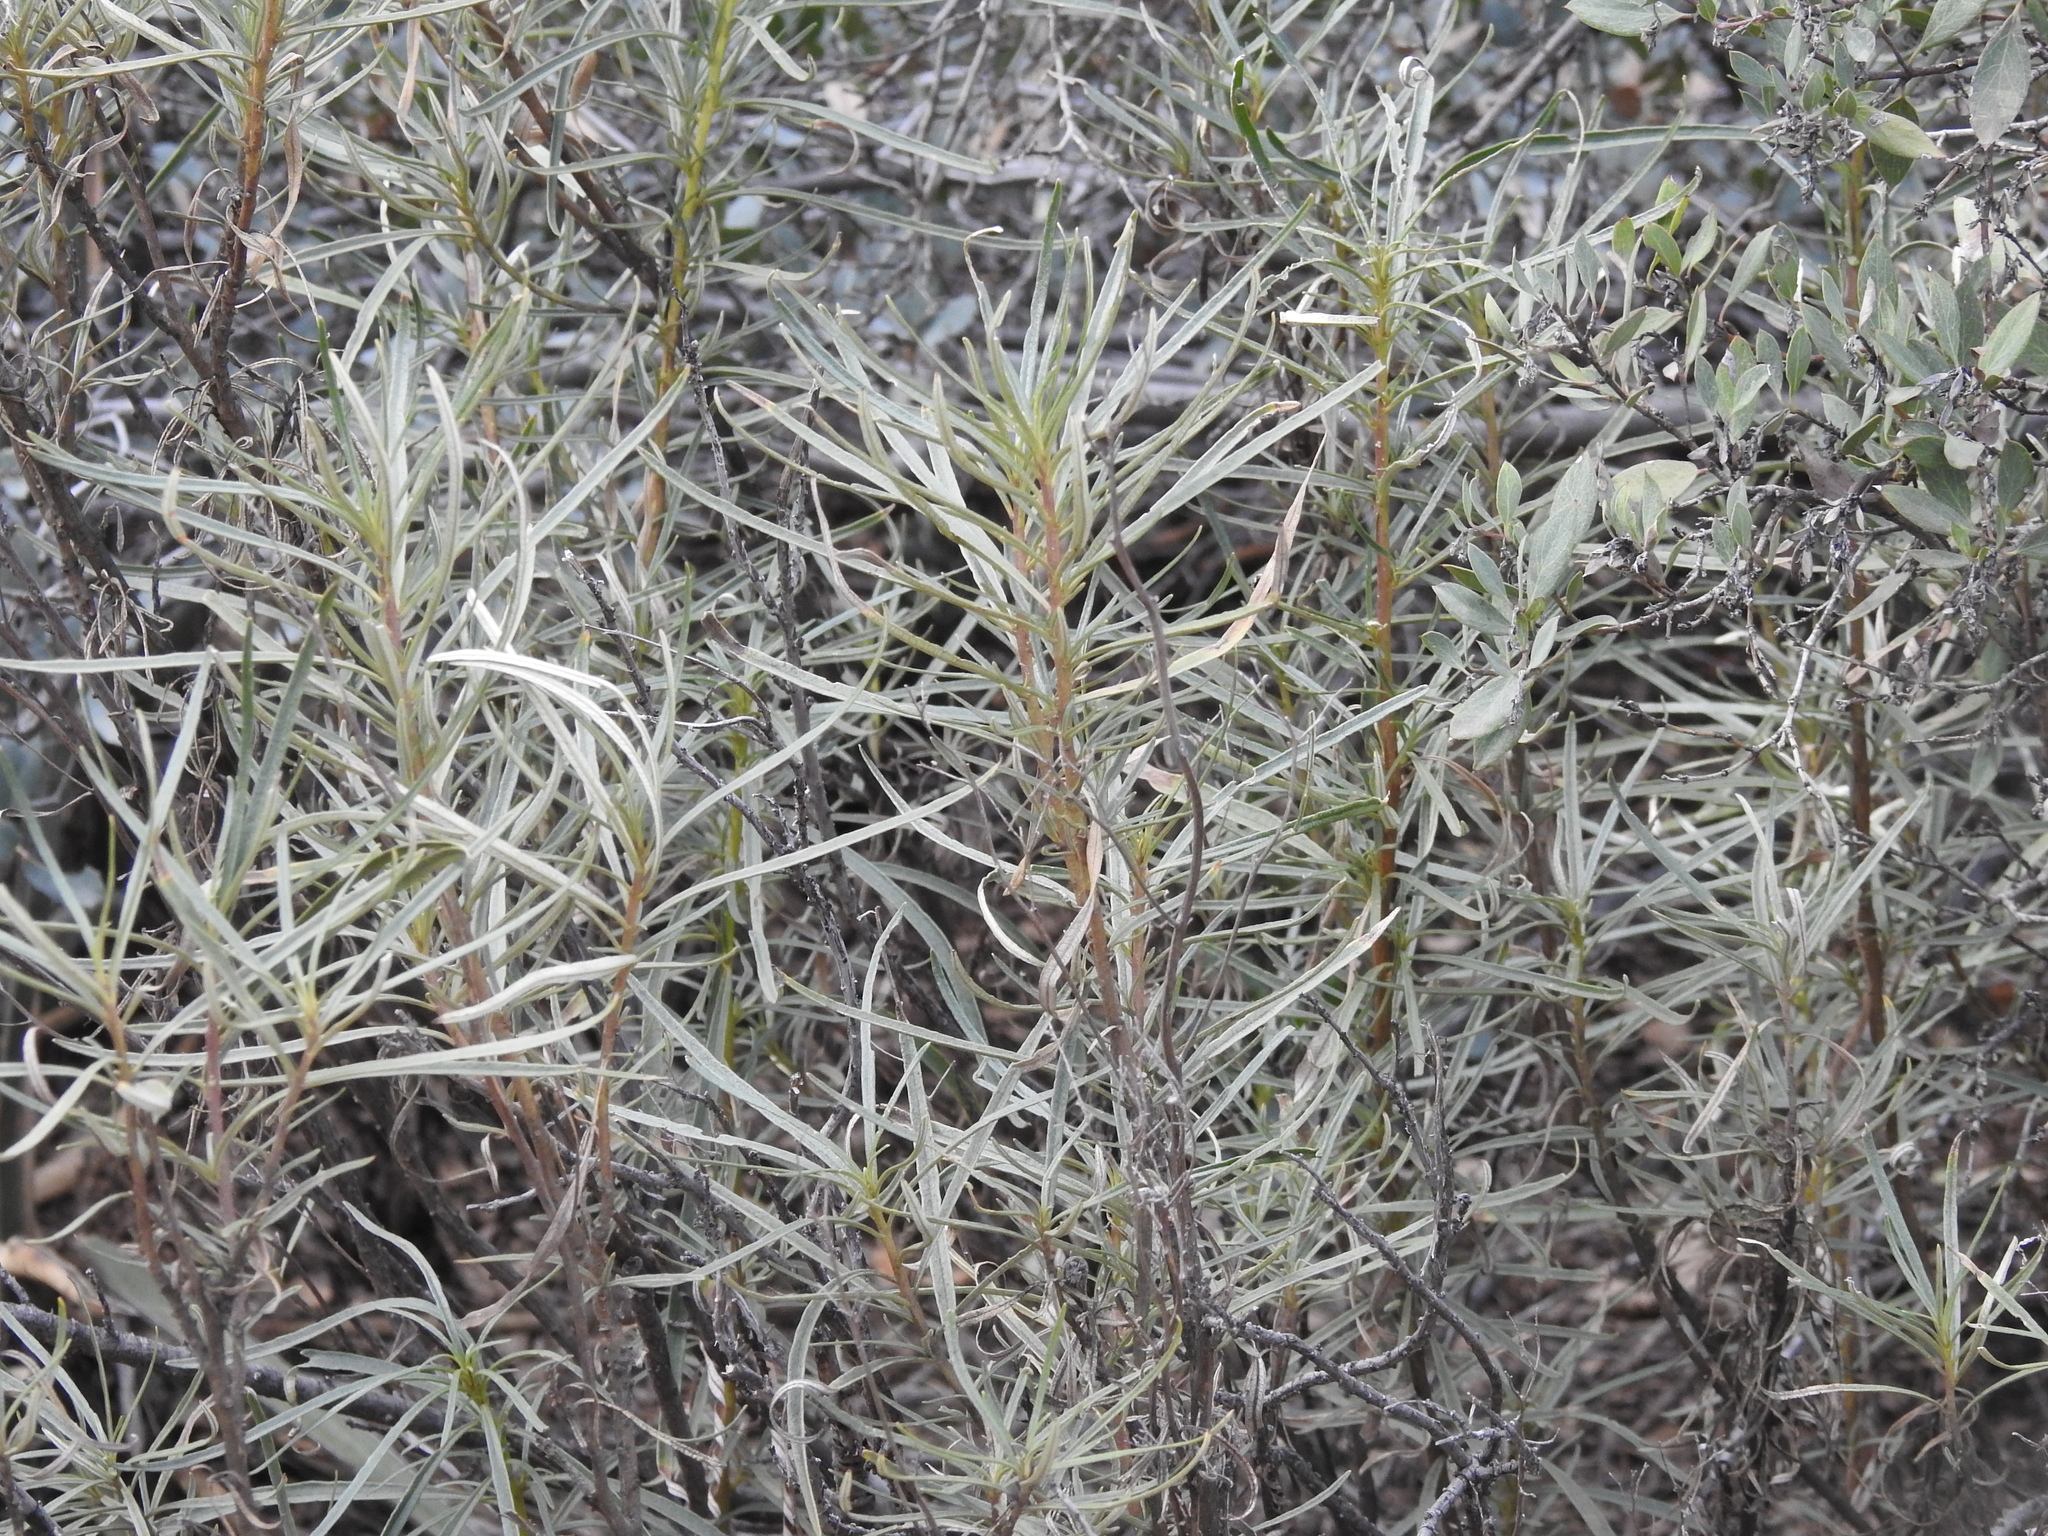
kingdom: Plantae
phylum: Tracheophyta
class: Magnoliopsida
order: Boraginales
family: Namaceae
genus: Eriodictyon
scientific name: Eriodictyon angustifolium
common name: Narrow-leaf yerba santa
